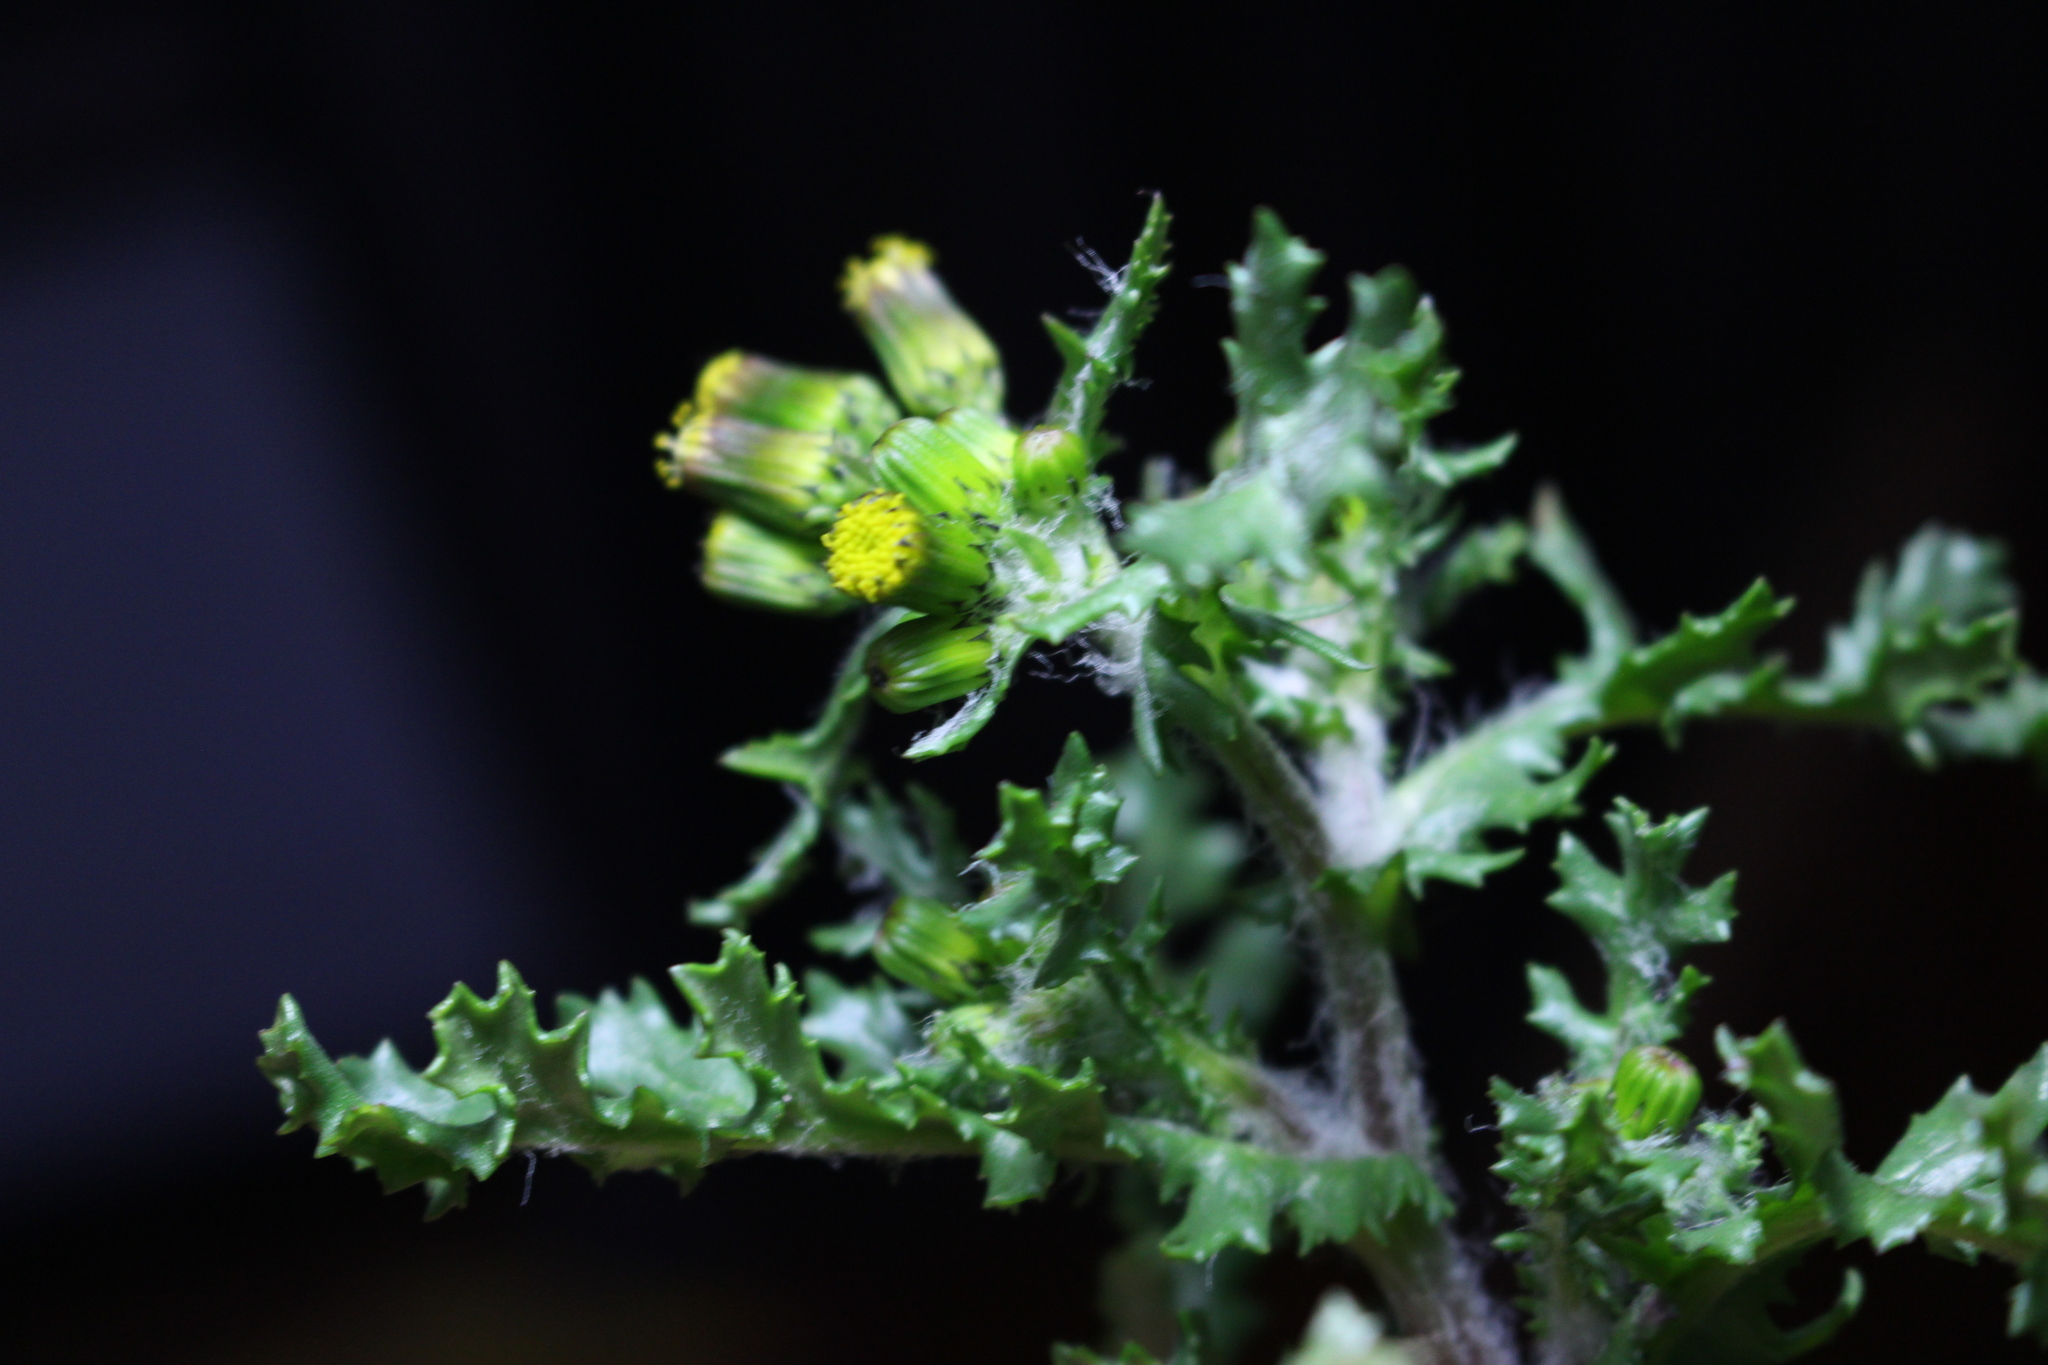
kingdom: Plantae
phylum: Tracheophyta
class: Magnoliopsida
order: Asterales
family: Asteraceae
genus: Senecio
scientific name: Senecio vulgaris
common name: Old-man-in-the-spring
